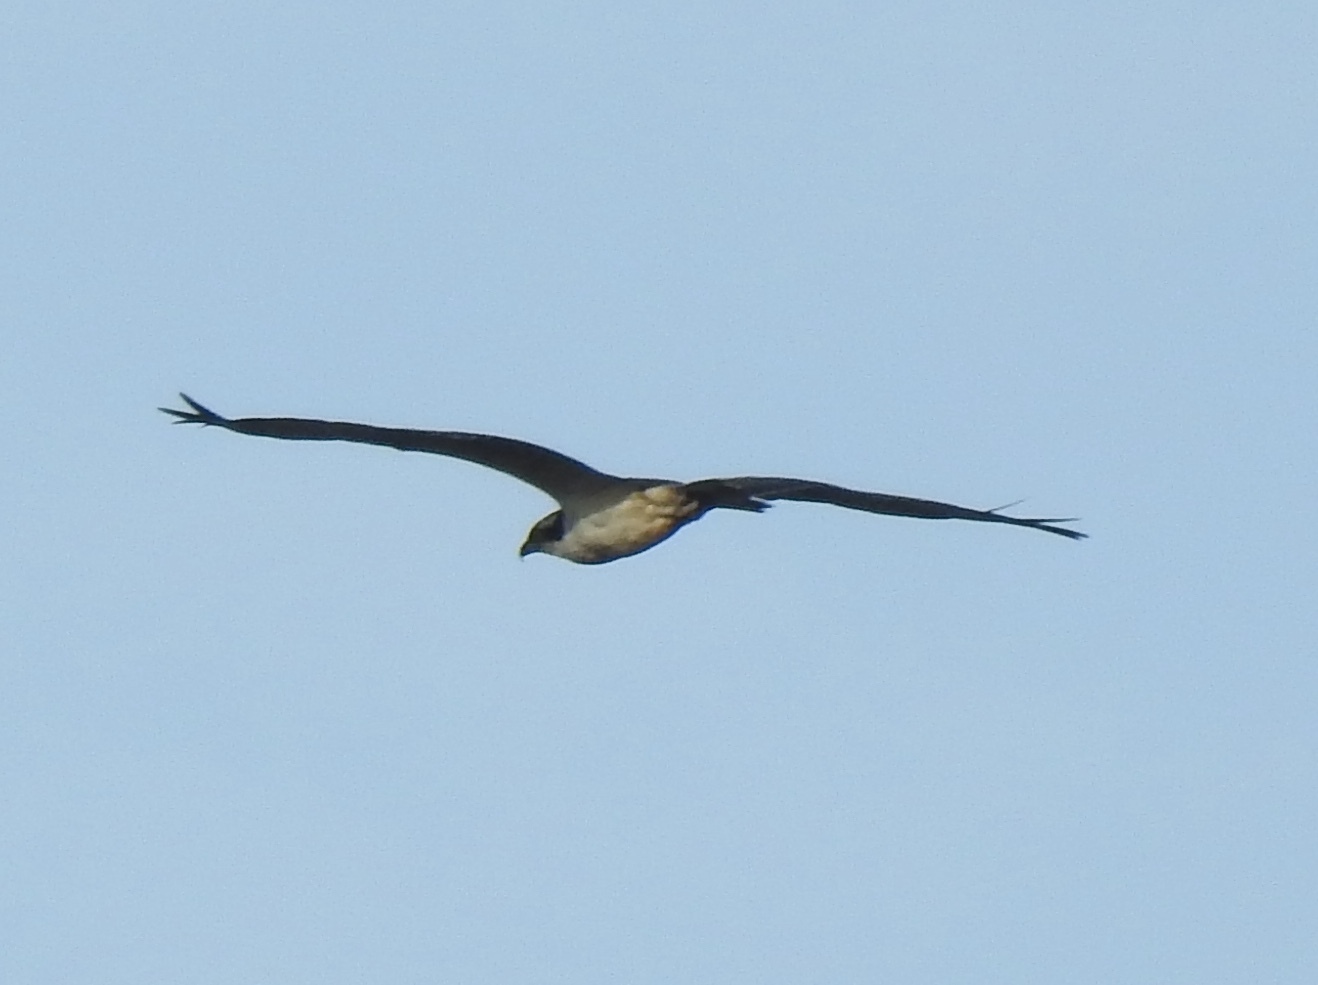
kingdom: Animalia
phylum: Chordata
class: Aves
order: Accipitriformes
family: Pandionidae
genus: Pandion
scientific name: Pandion haliaetus
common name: Osprey
